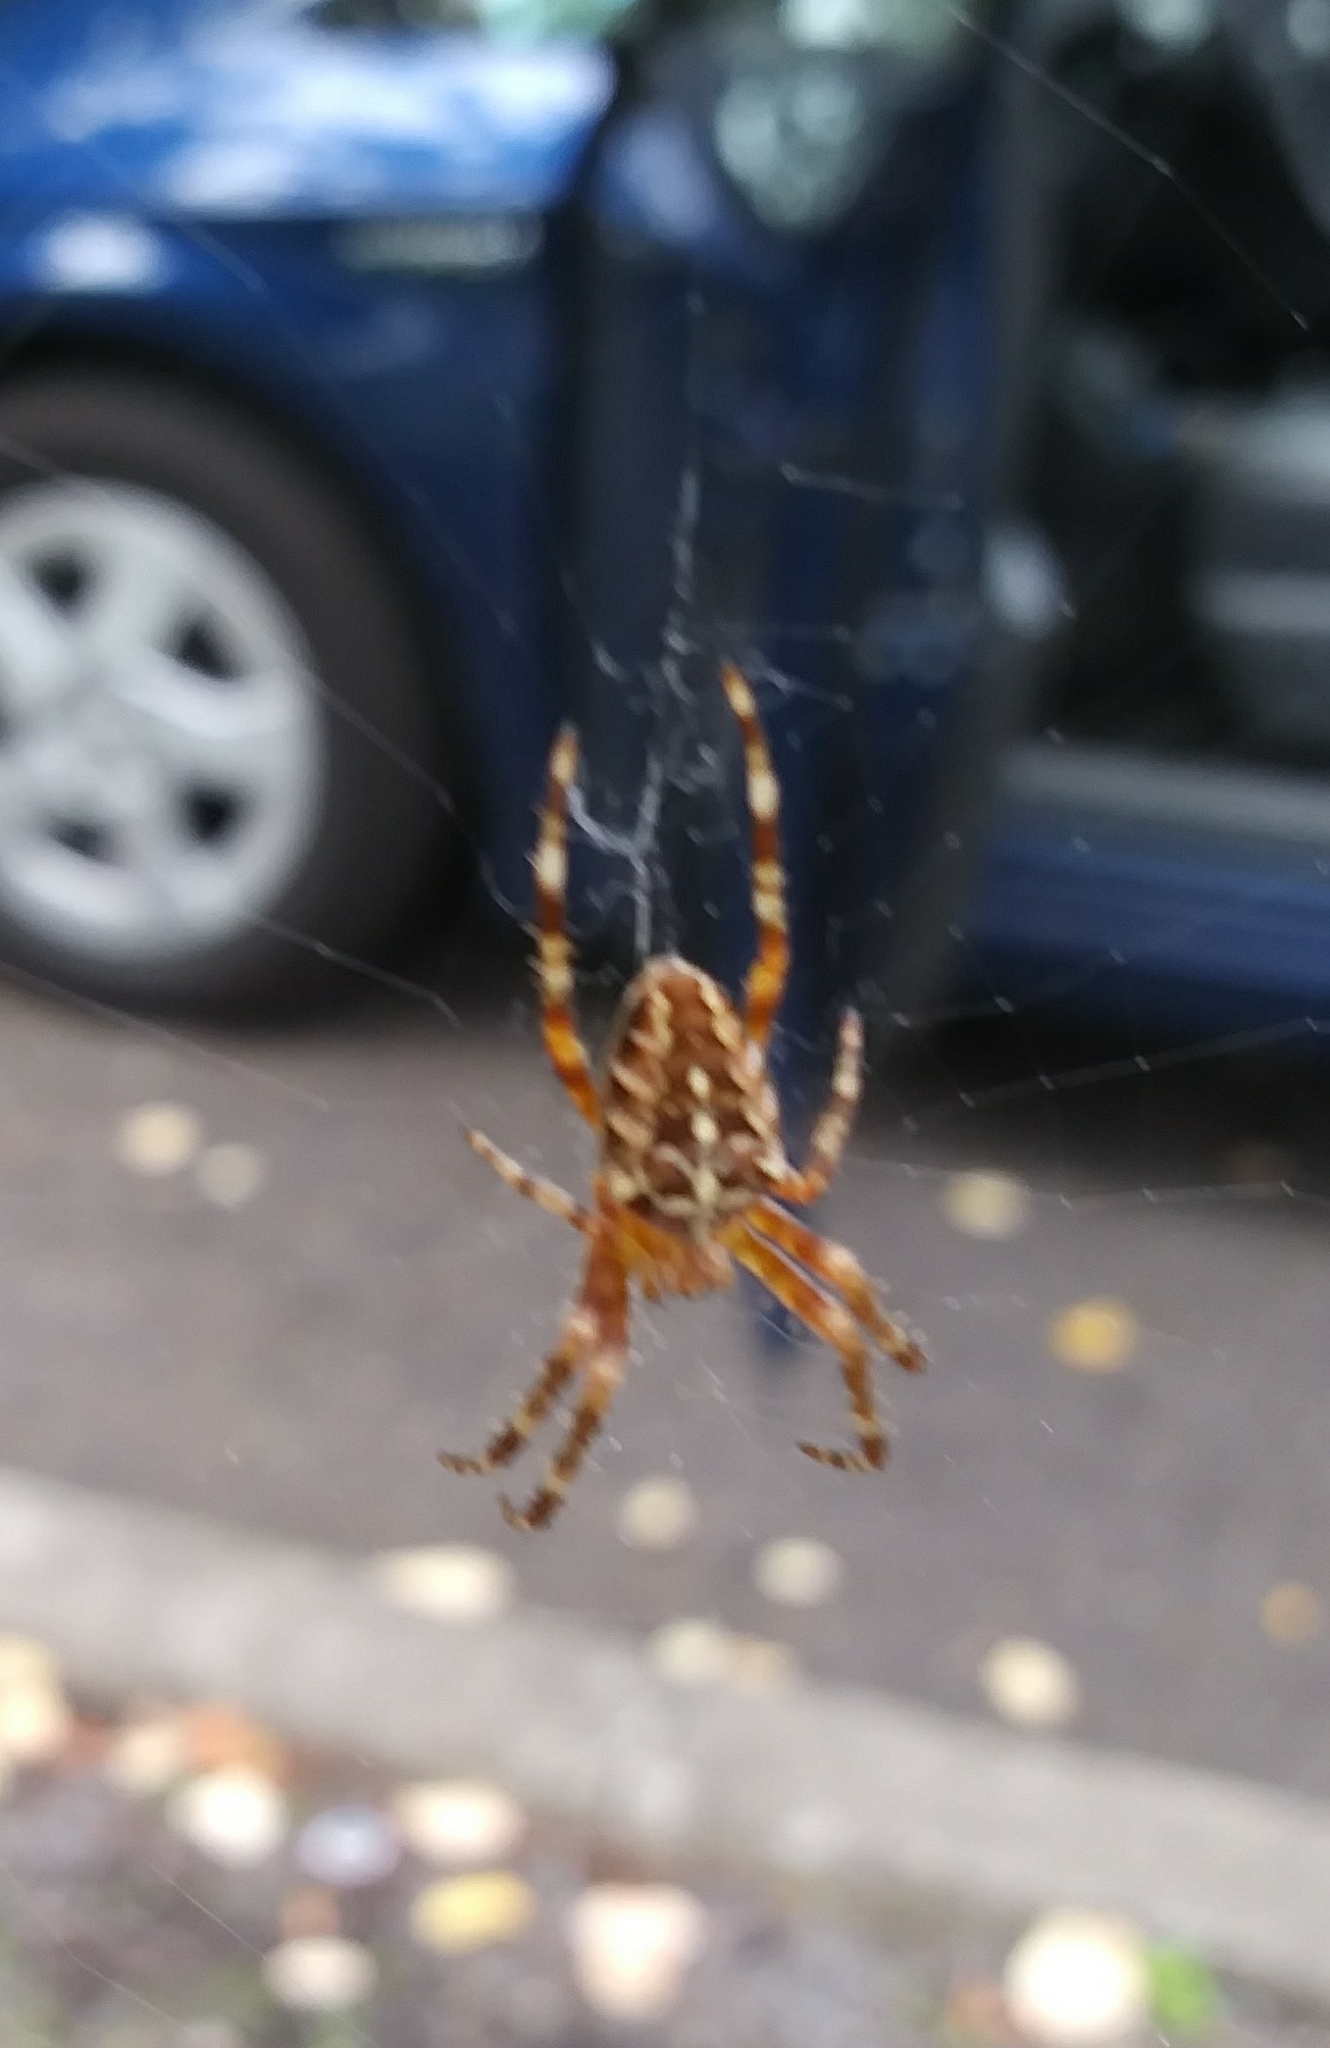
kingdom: Animalia
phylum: Arthropoda
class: Arachnida
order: Araneae
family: Araneidae
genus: Araneus
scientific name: Araneus diadematus
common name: Cross orbweaver
